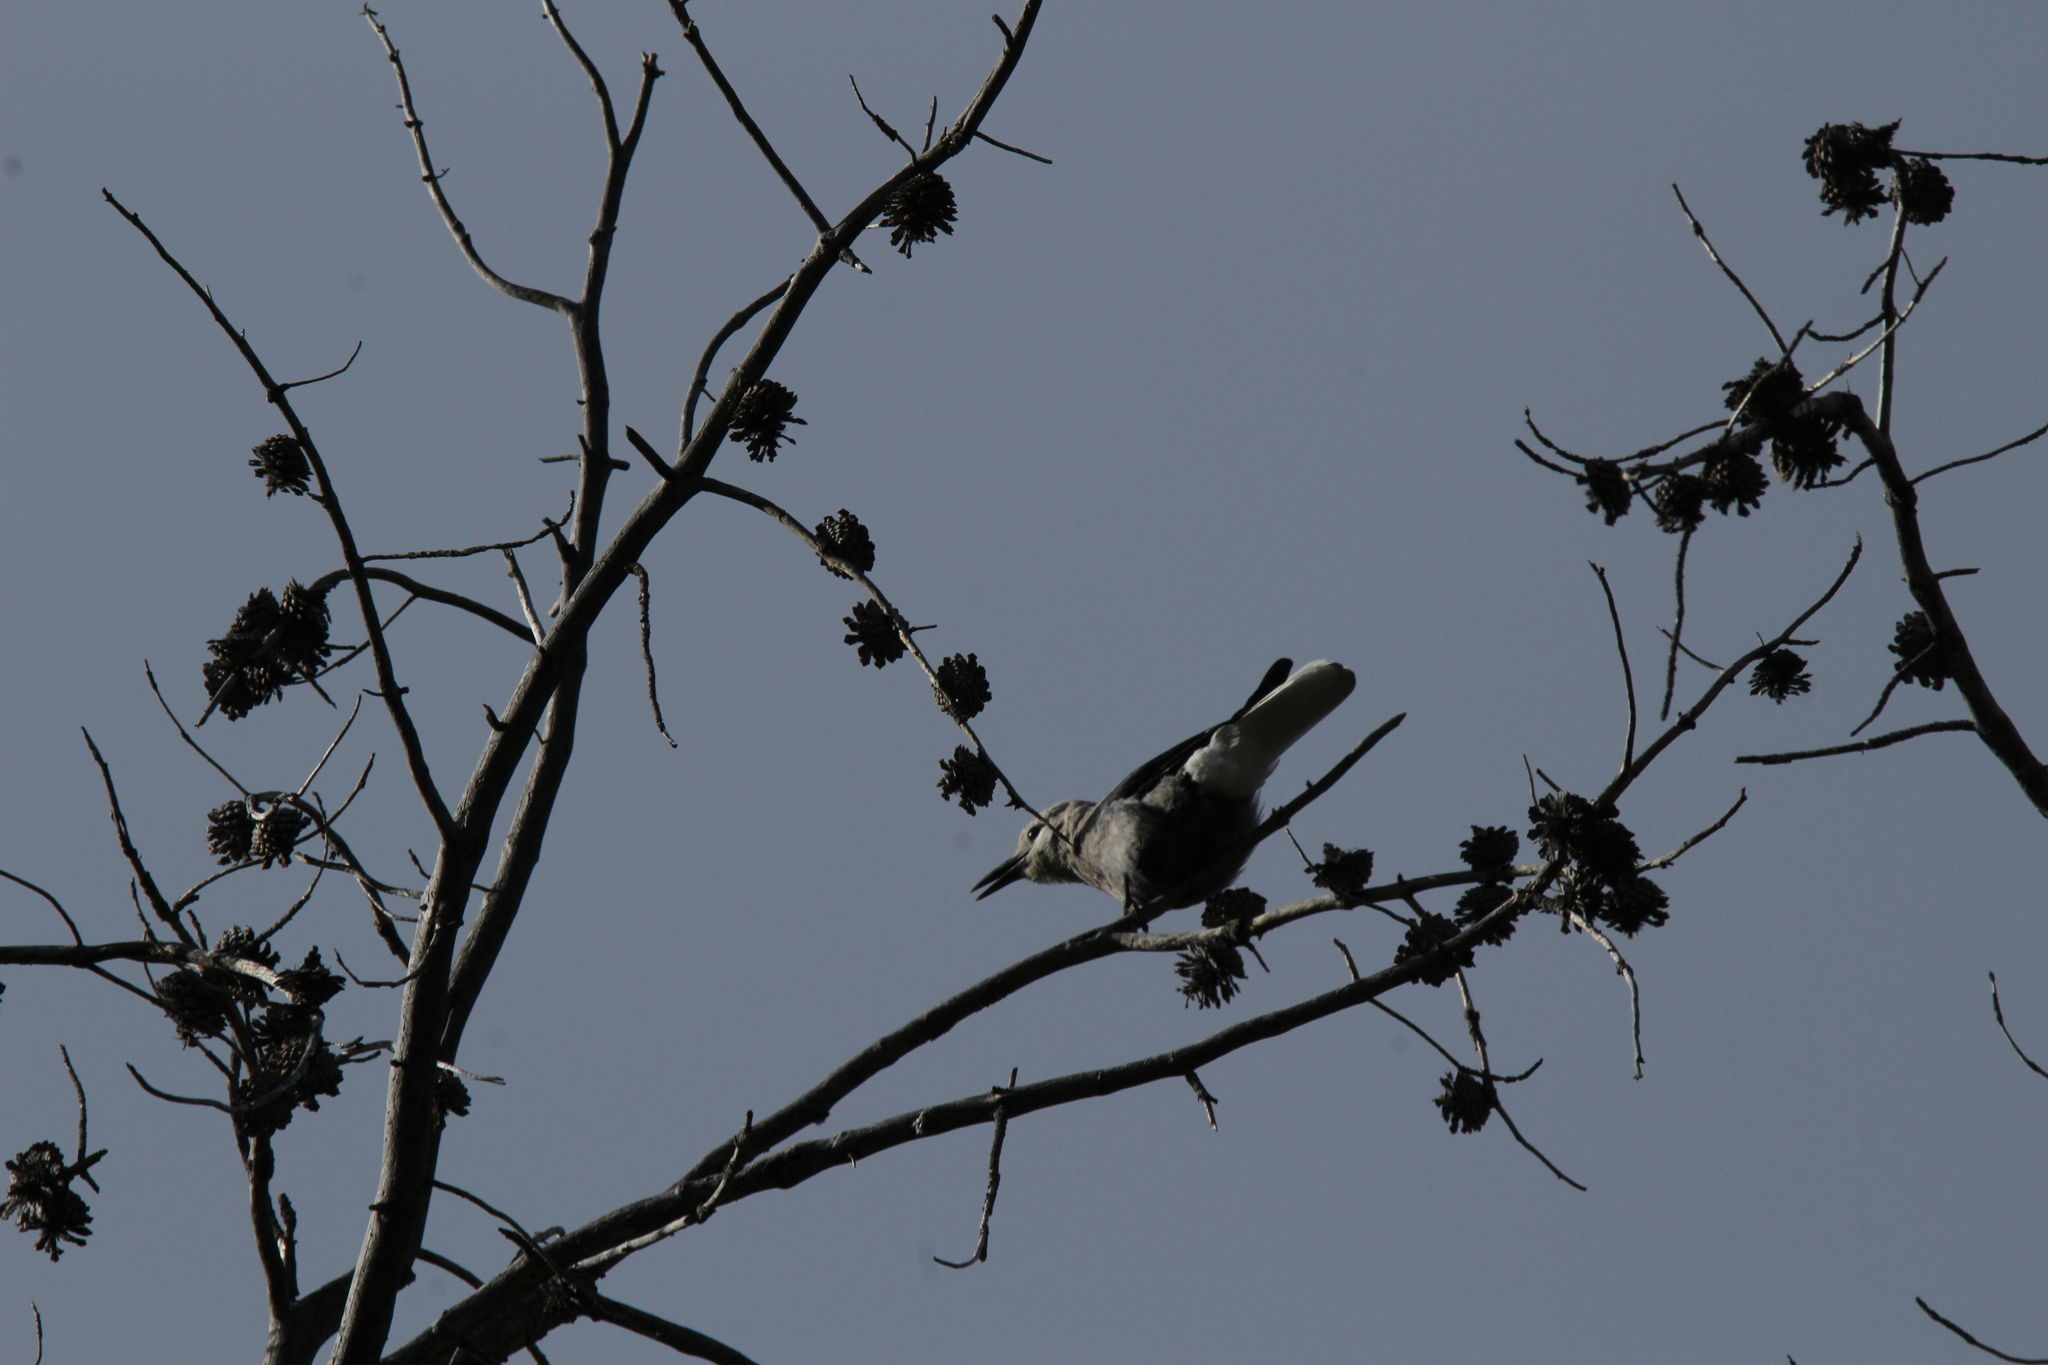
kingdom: Animalia
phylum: Chordata
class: Aves
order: Passeriformes
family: Corvidae
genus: Nucifraga
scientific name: Nucifraga columbiana
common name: Clark's nutcracker
